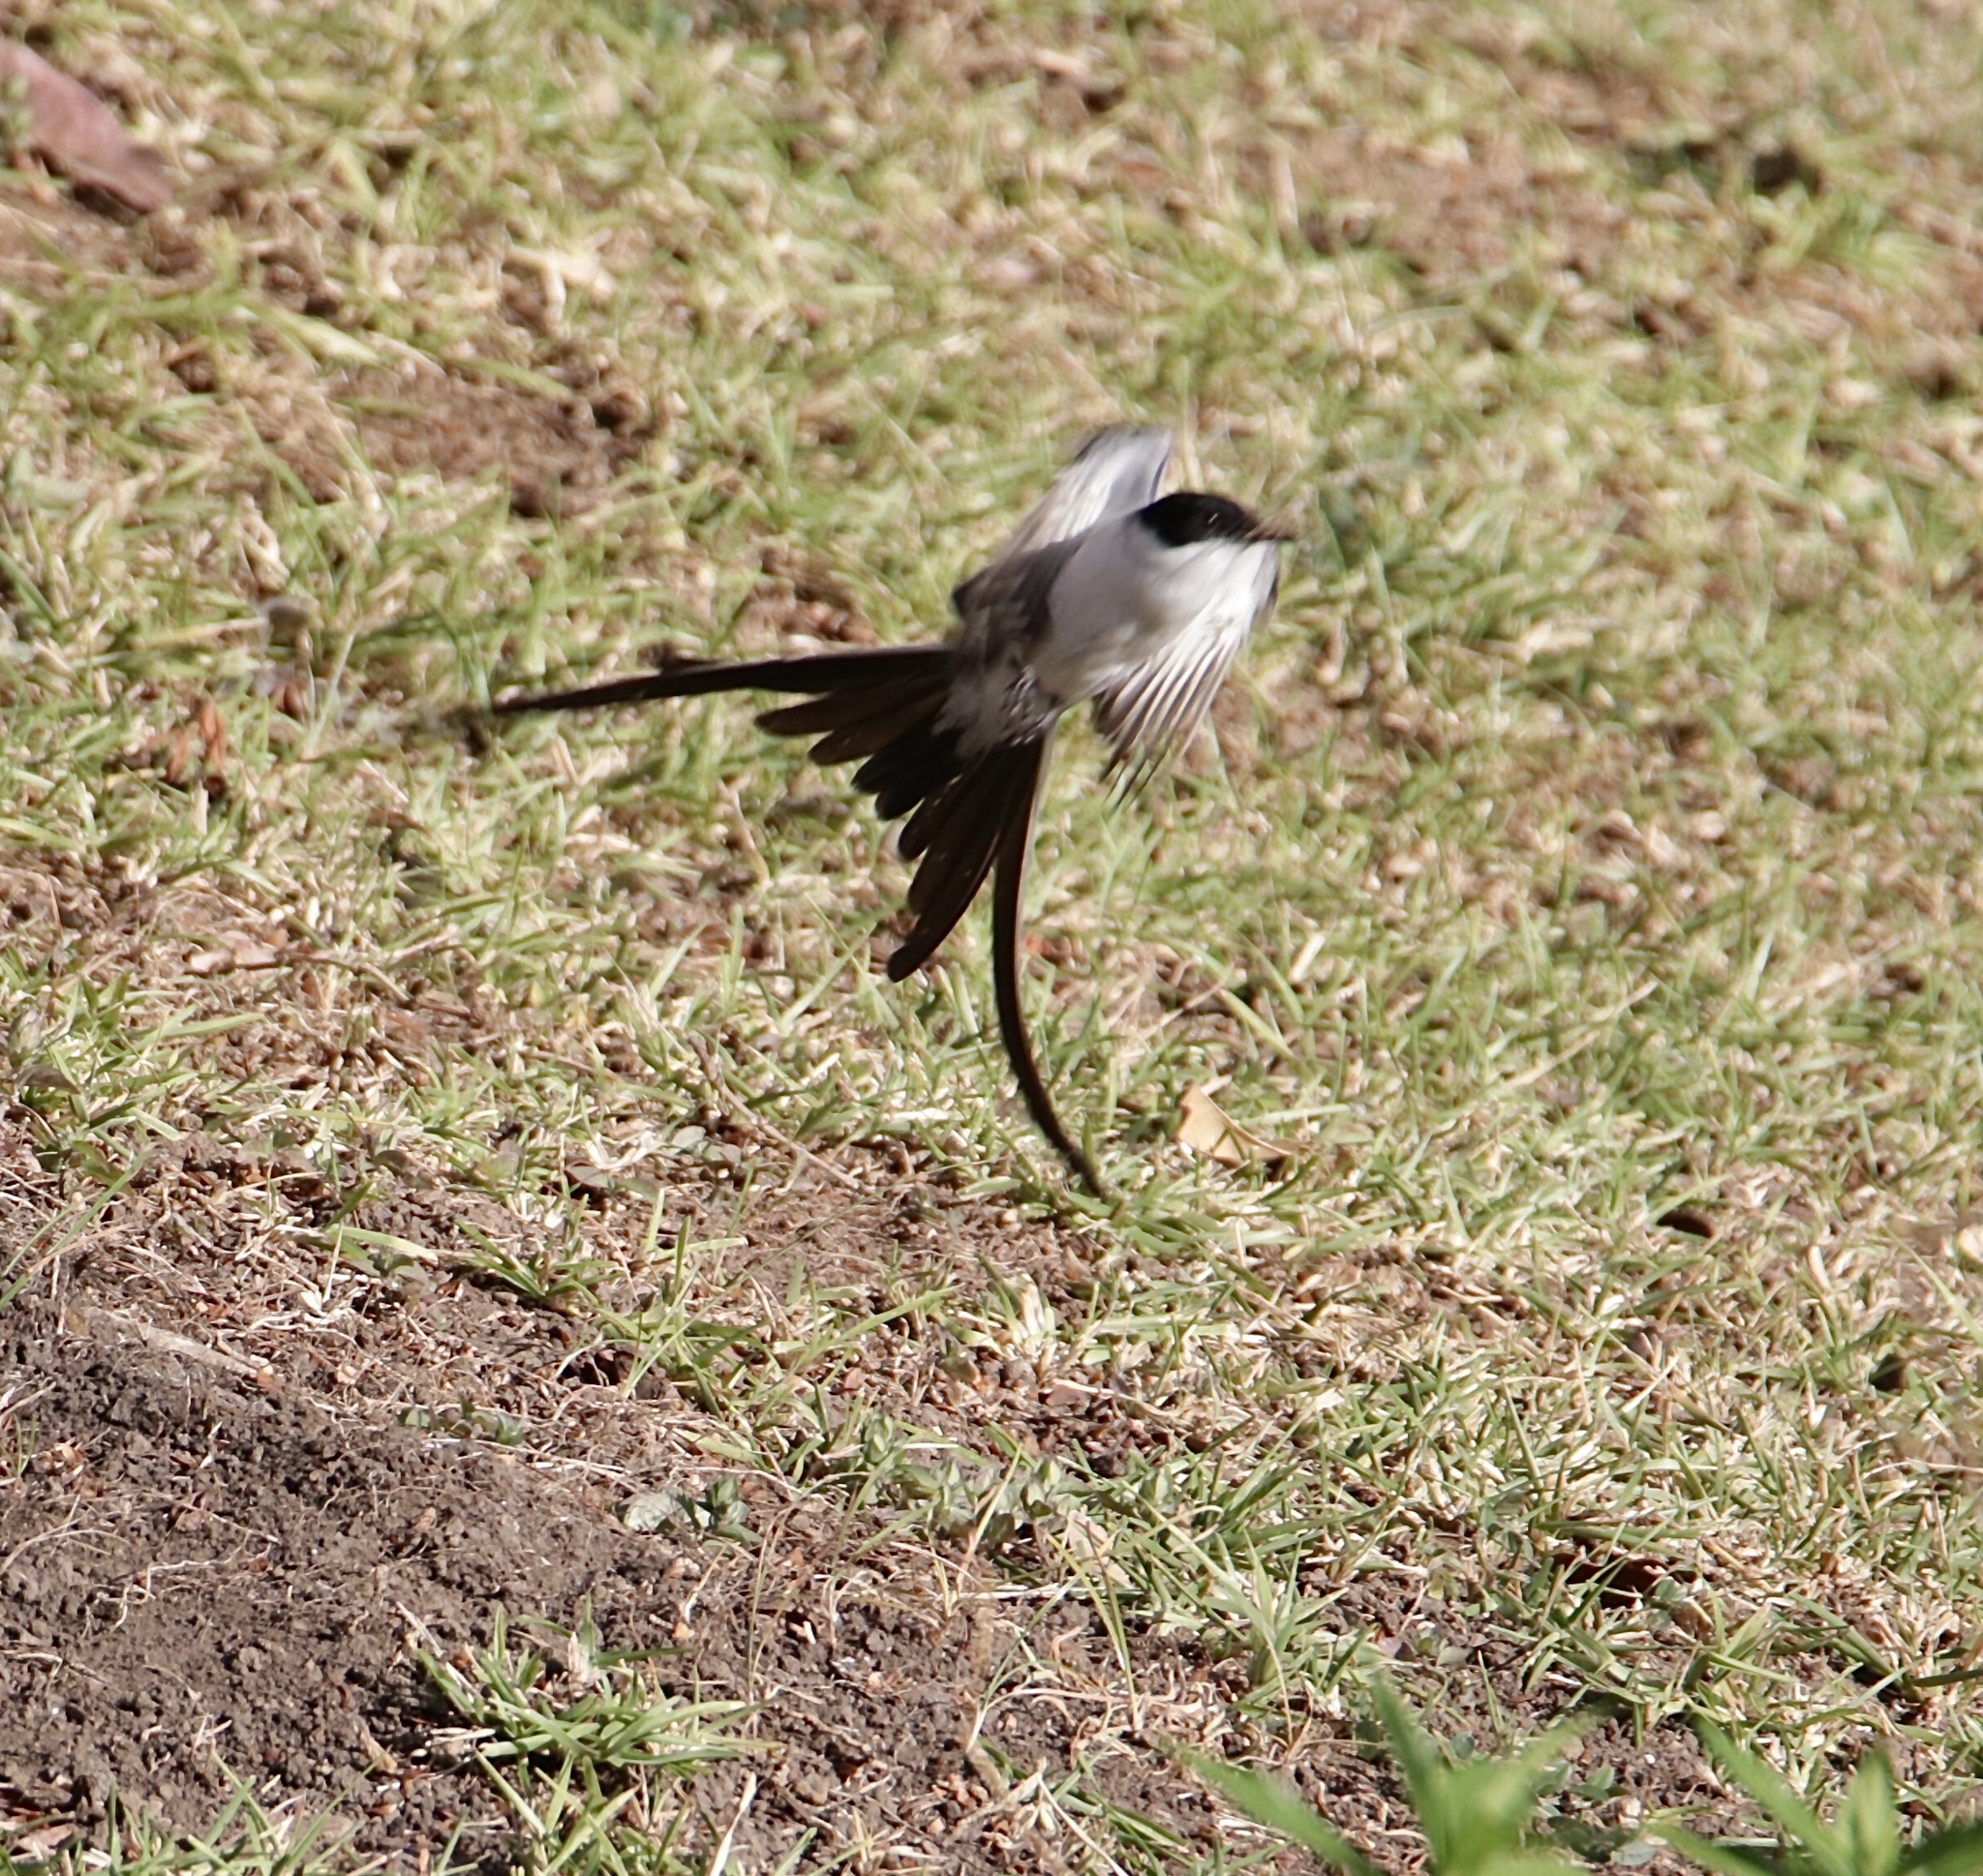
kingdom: Animalia
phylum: Chordata
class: Aves
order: Passeriformes
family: Tyrannidae
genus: Tyrannus
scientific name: Tyrannus savana
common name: Fork-tailed flycatcher
